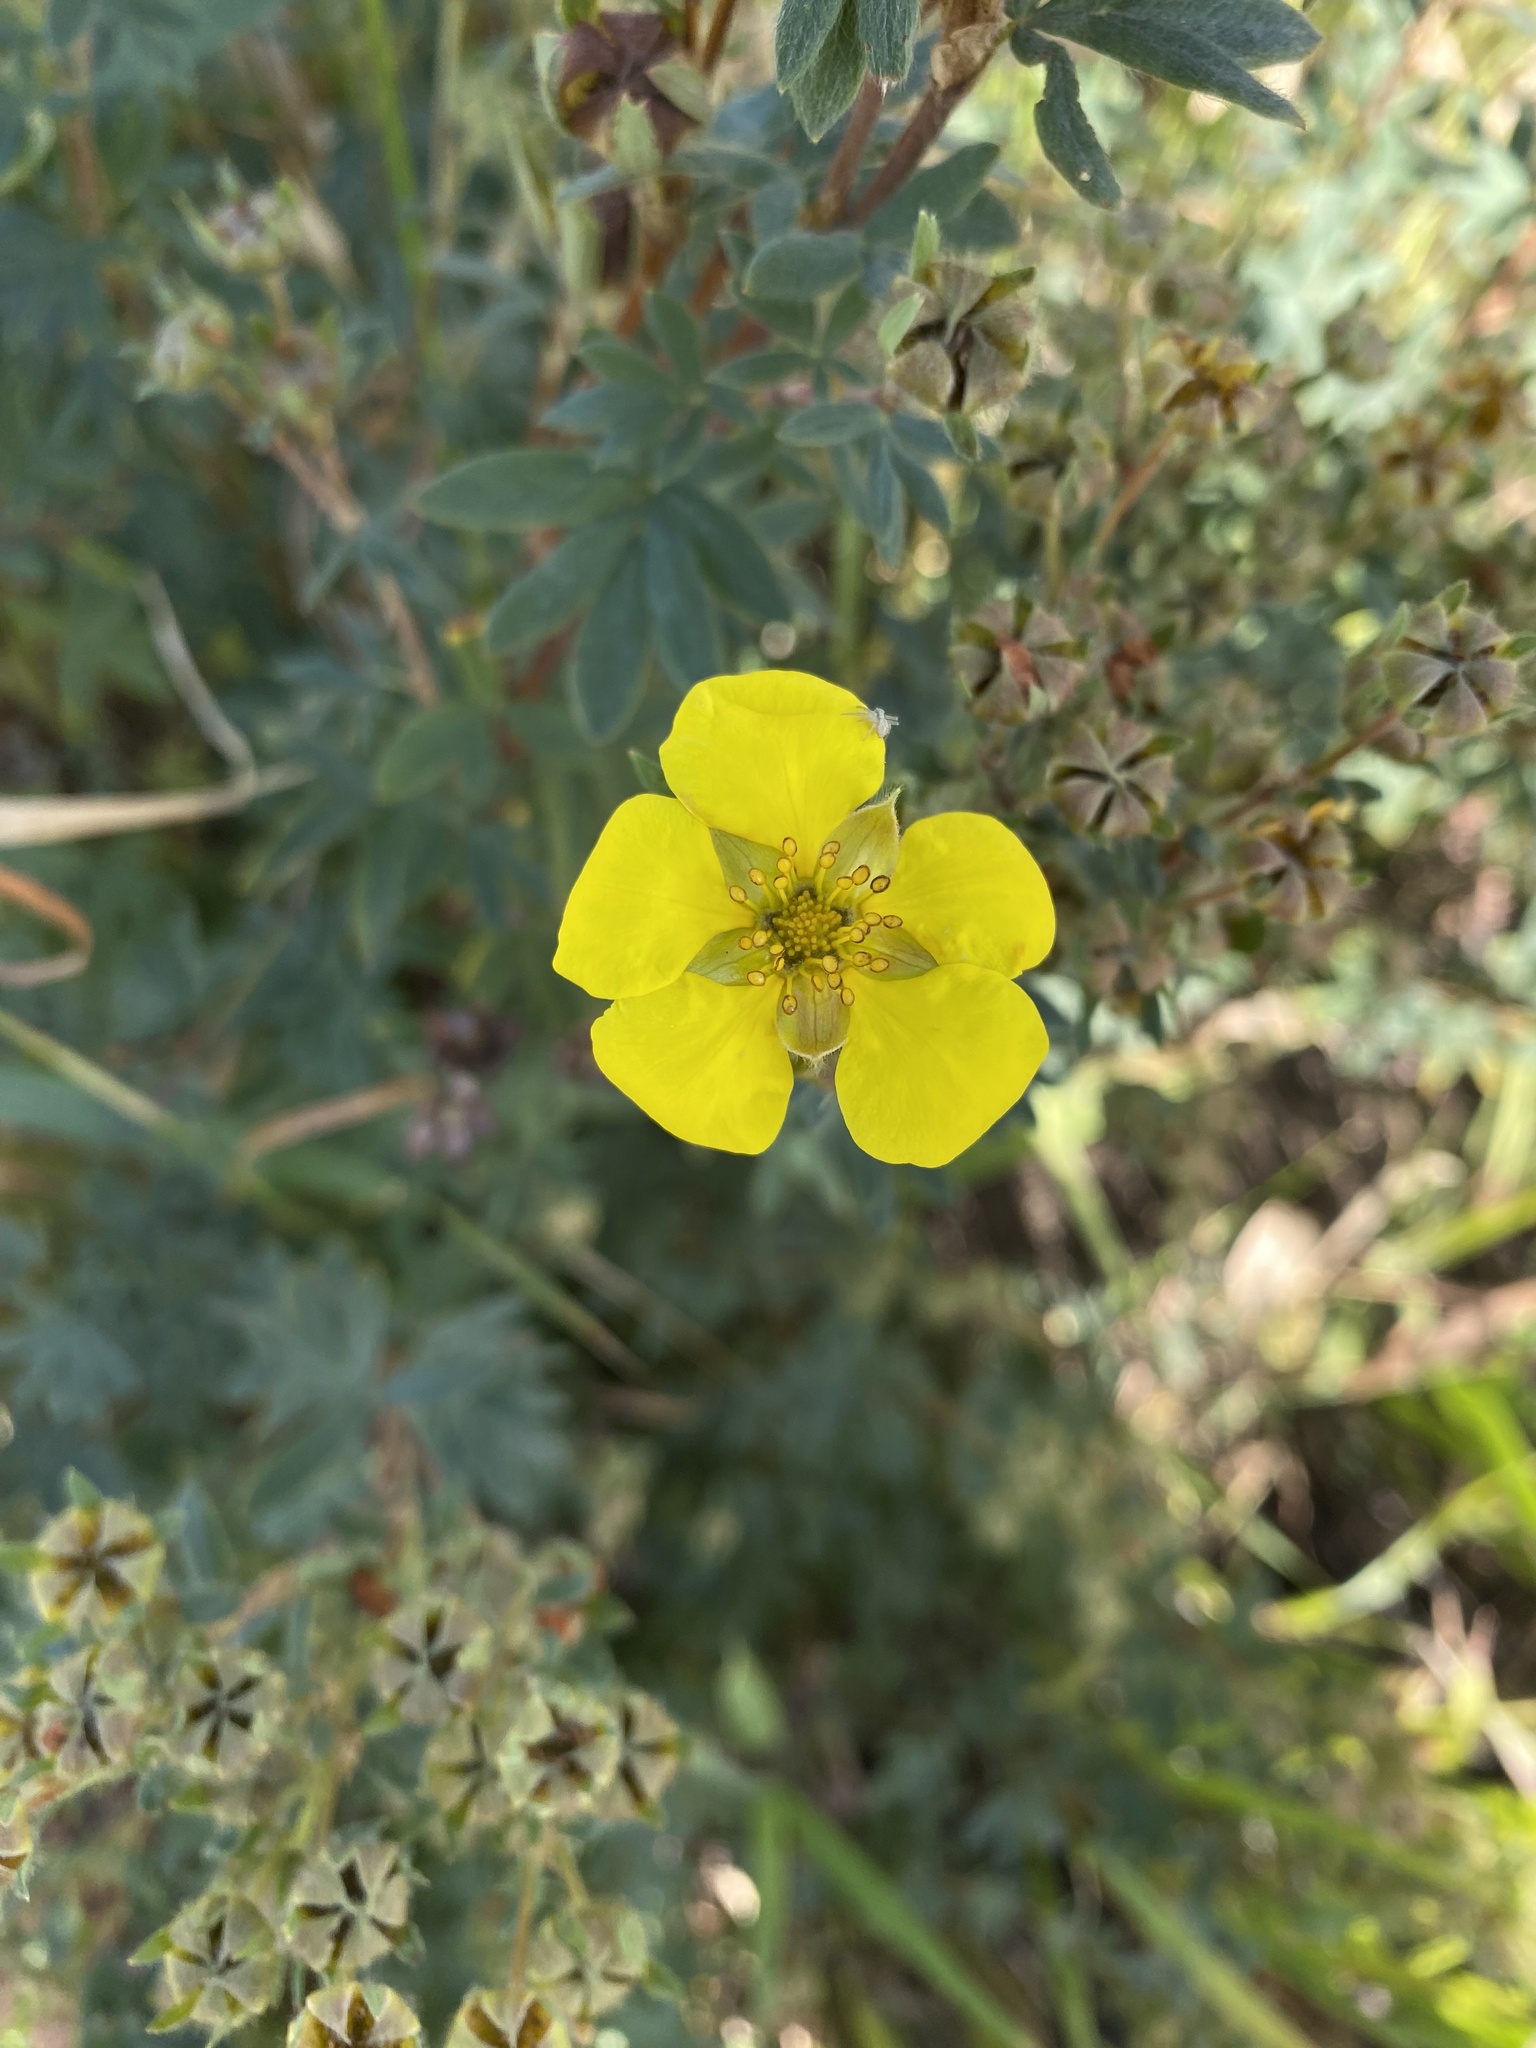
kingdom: Plantae
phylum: Tracheophyta
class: Magnoliopsida
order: Rosales
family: Rosaceae
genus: Dasiphora
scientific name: Dasiphora fruticosa
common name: Shrubby cinquefoil
